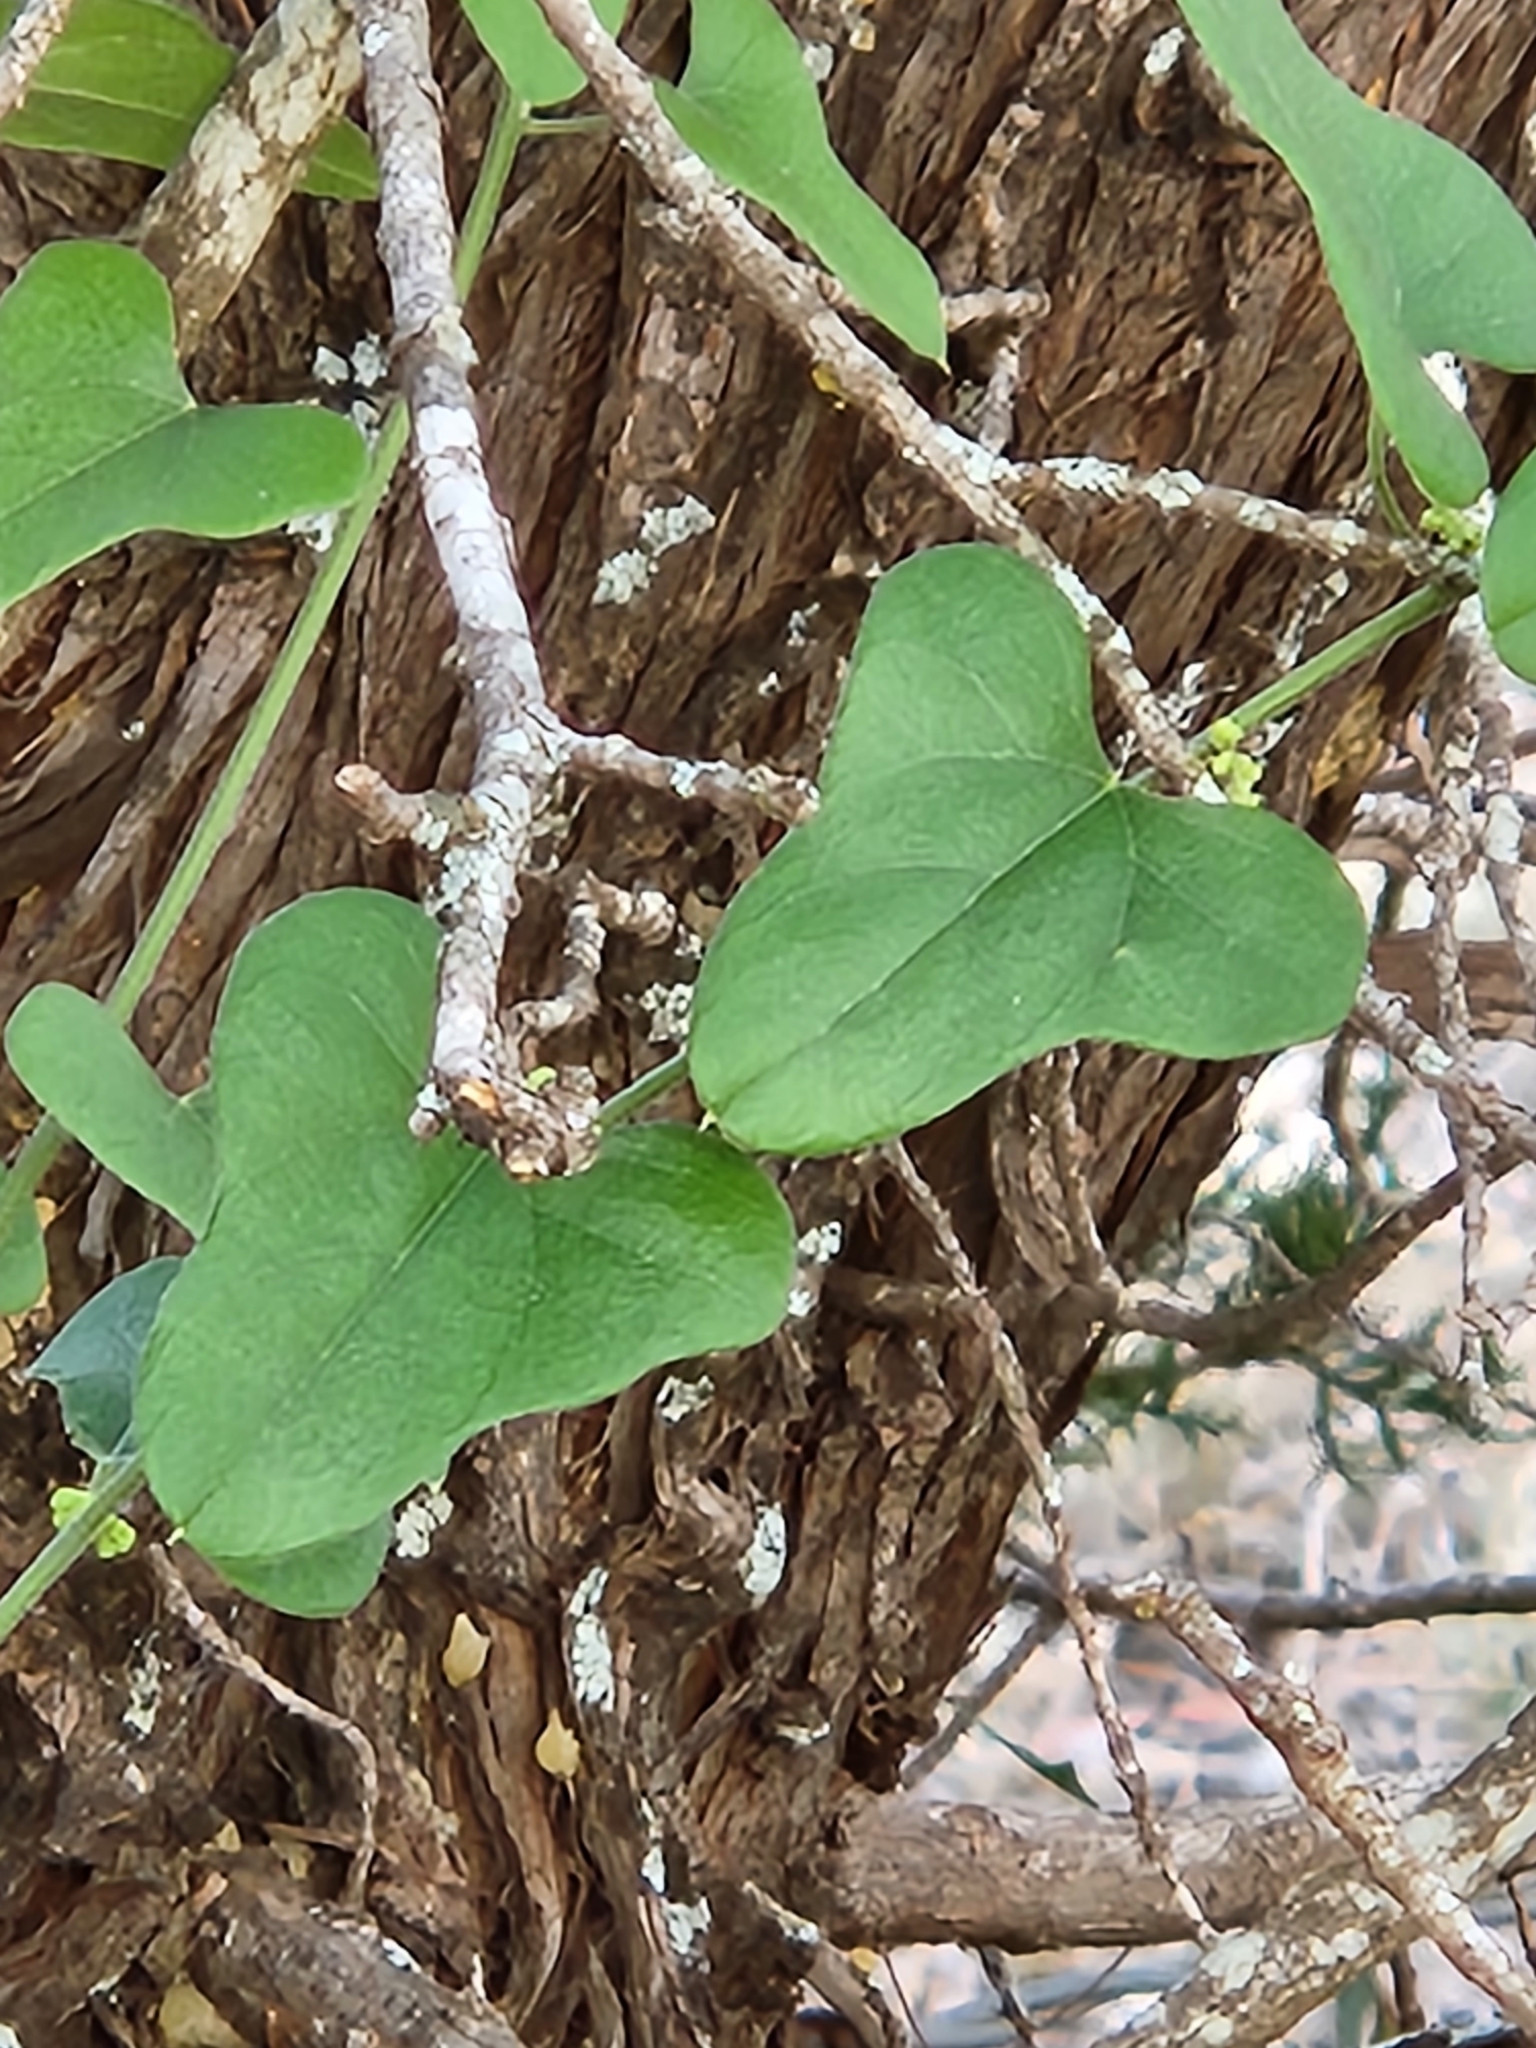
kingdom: Plantae
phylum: Tracheophyta
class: Magnoliopsida
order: Ranunculales
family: Menispermaceae
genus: Cocculus
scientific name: Cocculus carolinus
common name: Carolina moonseed
